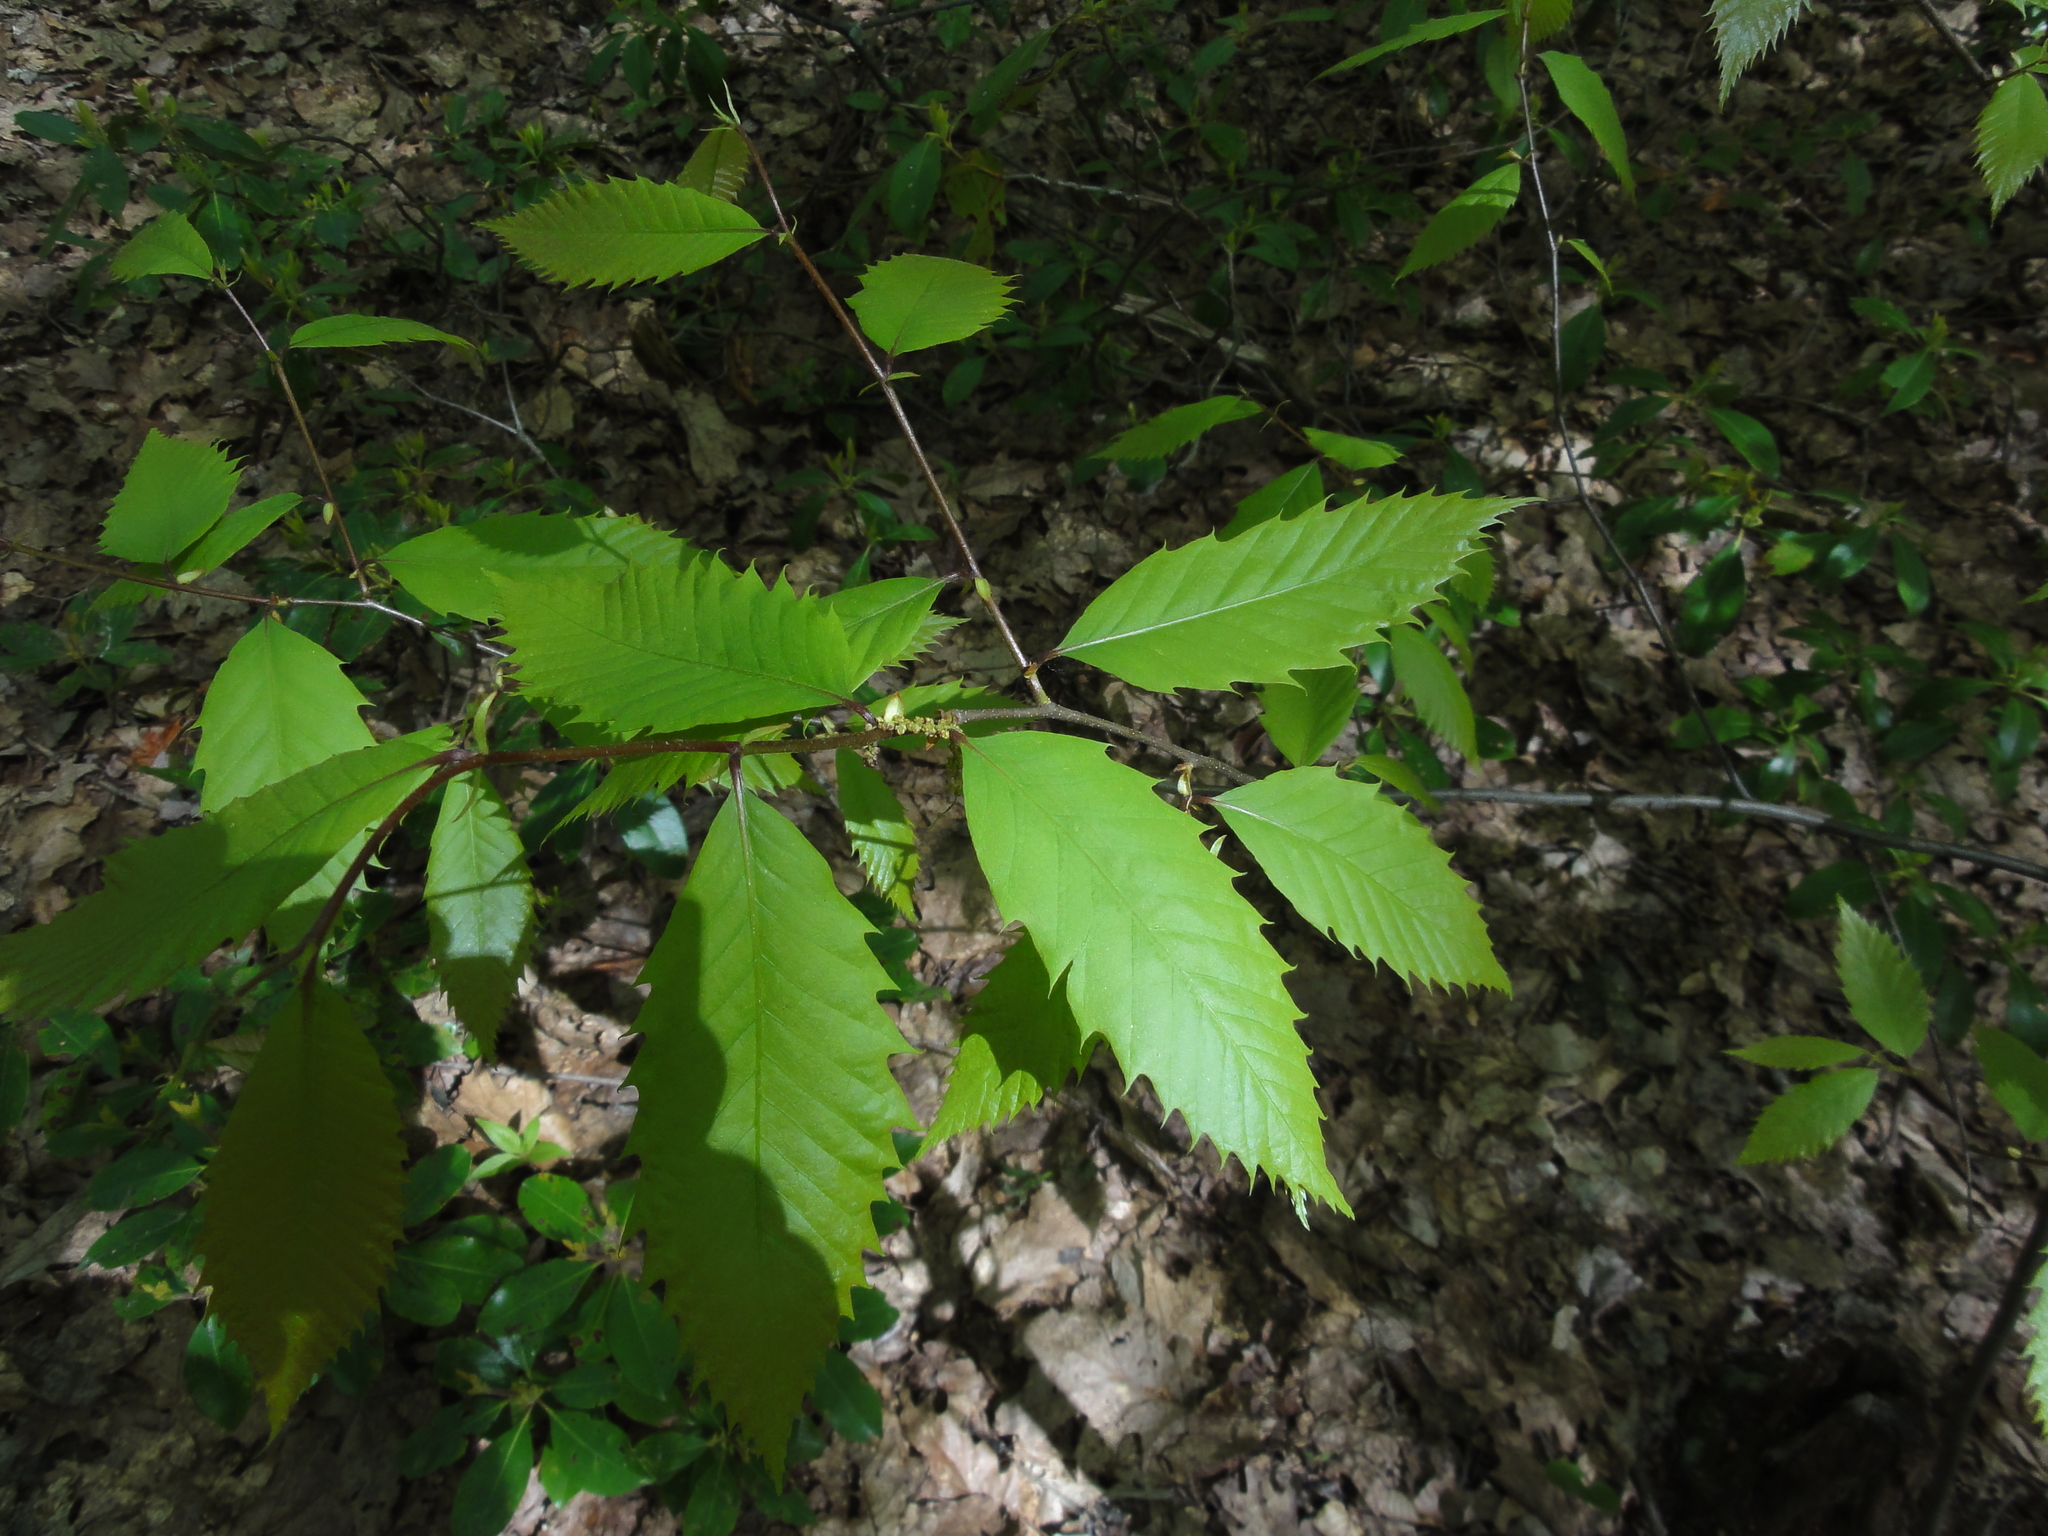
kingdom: Plantae
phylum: Tracheophyta
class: Magnoliopsida
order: Fagales
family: Fagaceae
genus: Castanea
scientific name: Castanea dentata
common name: American chestnut
